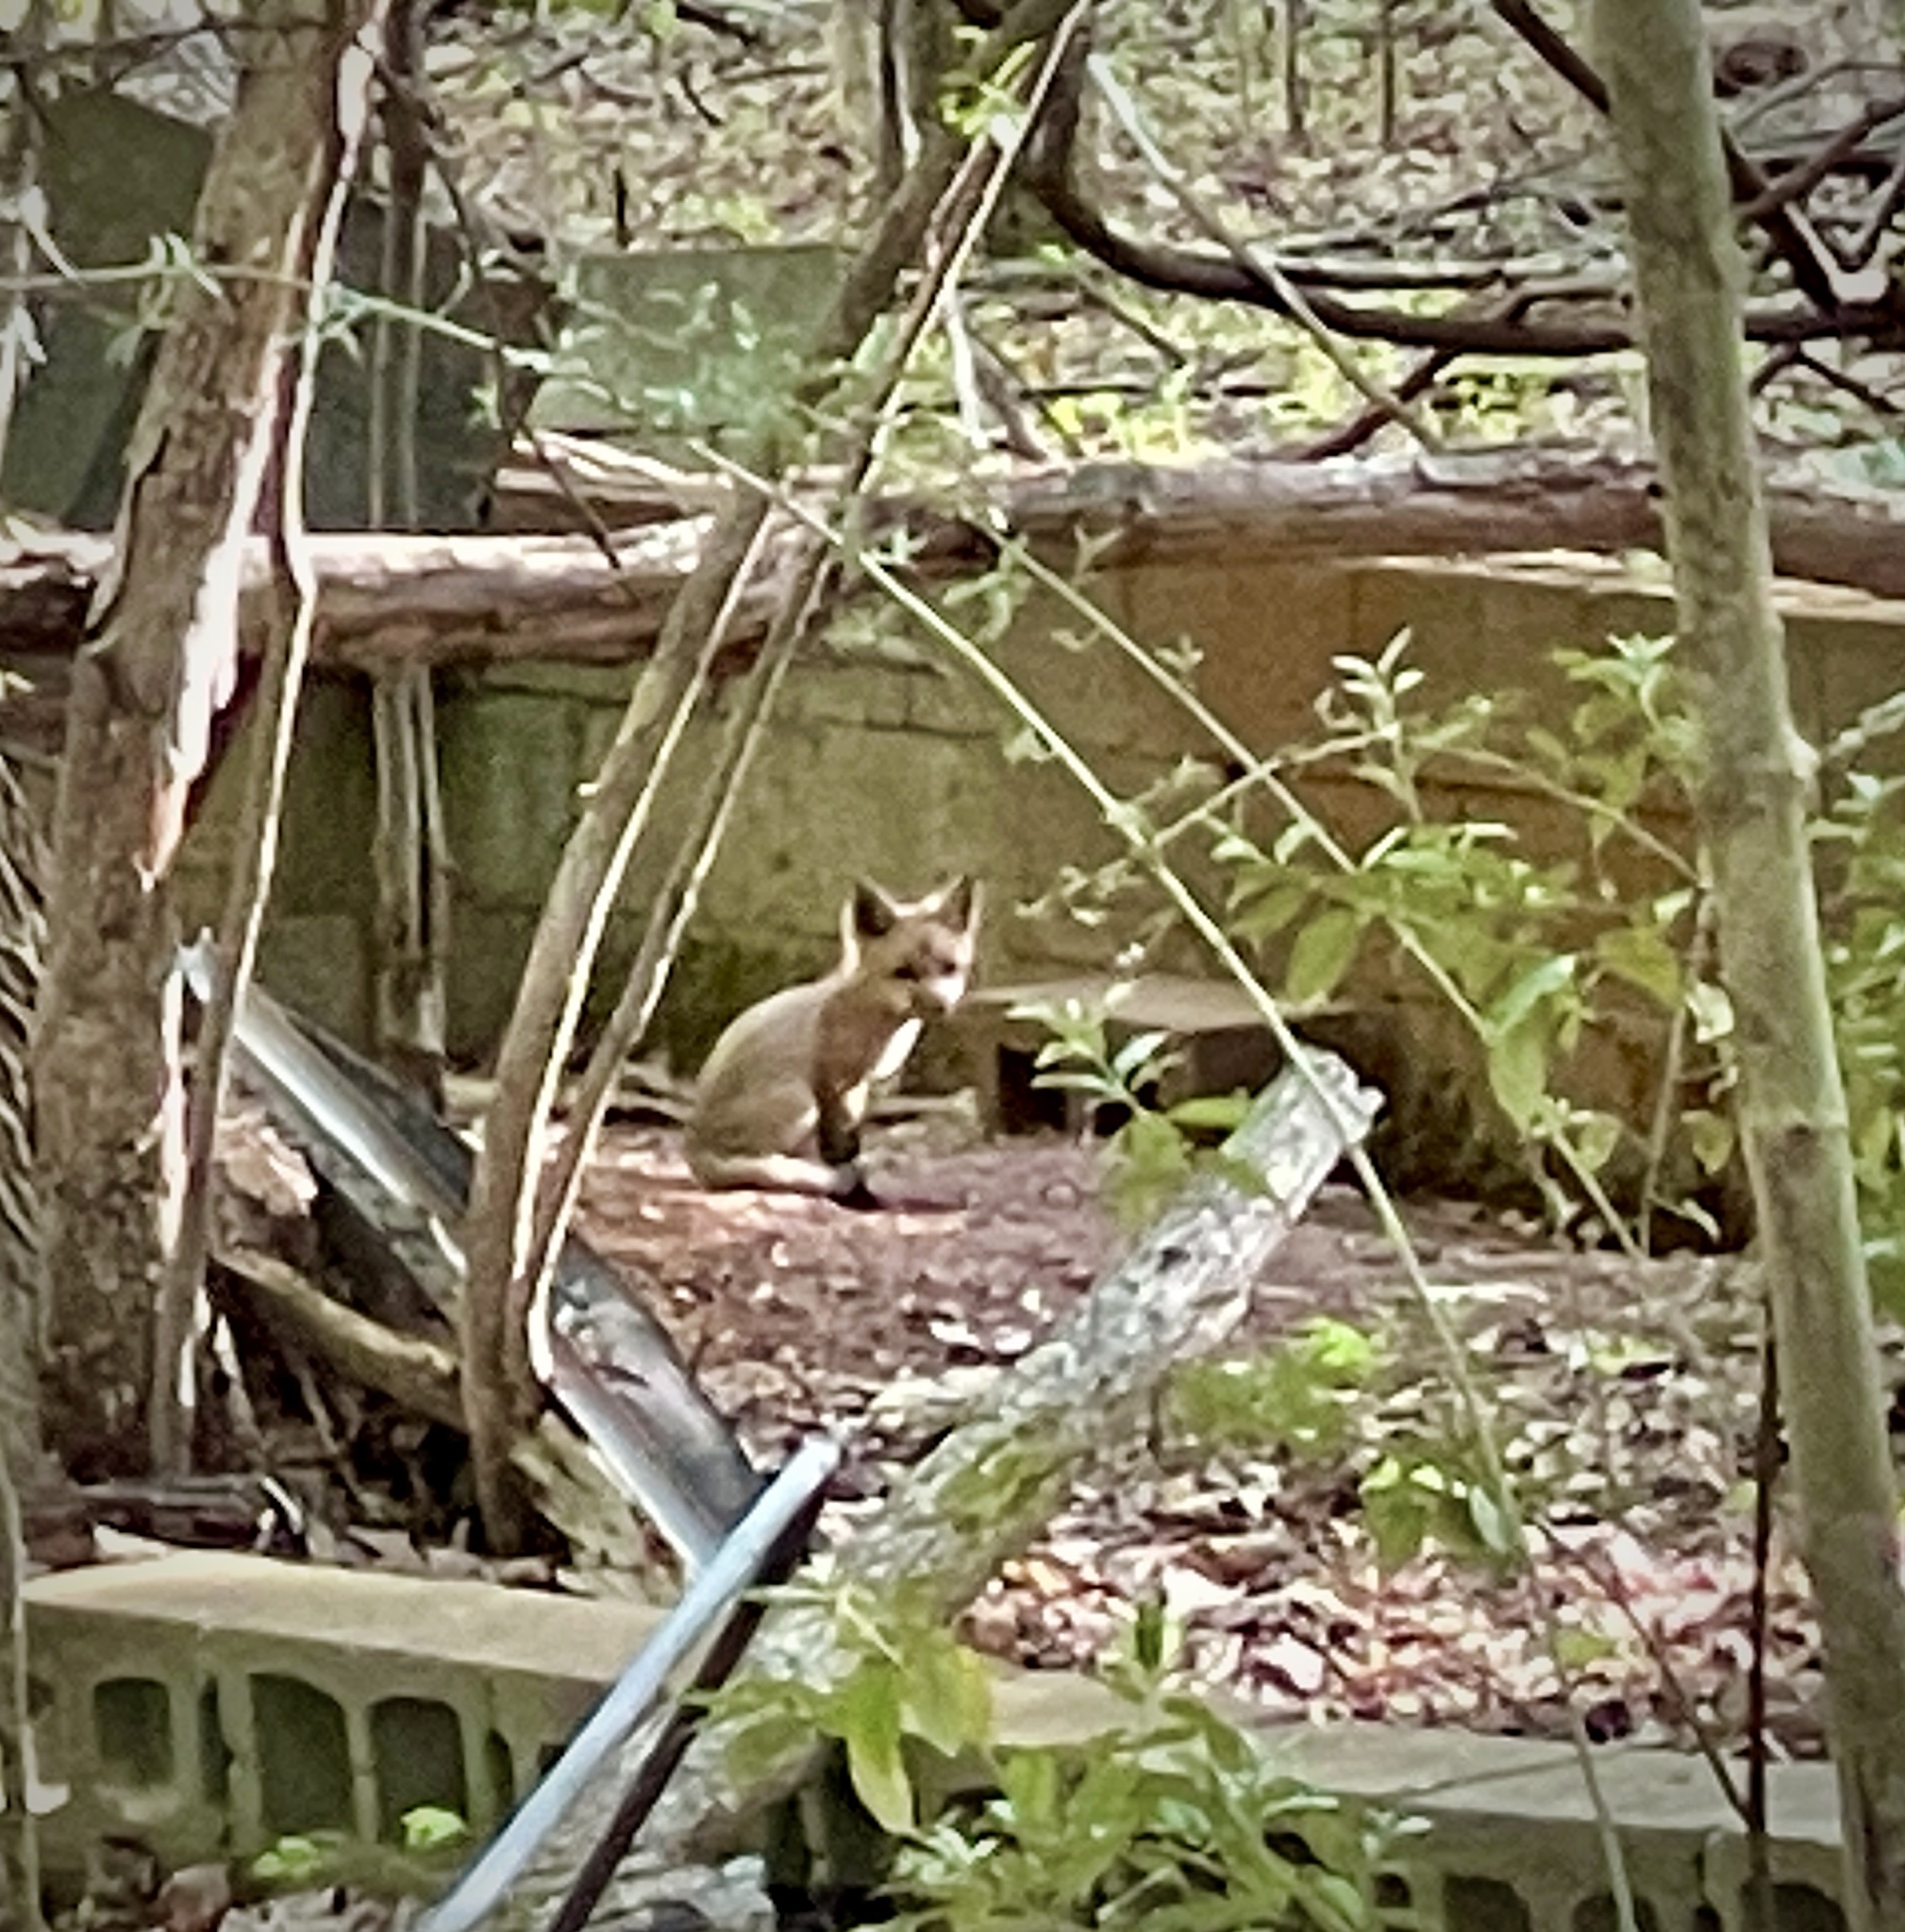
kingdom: Animalia
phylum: Chordata
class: Mammalia
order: Carnivora
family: Canidae
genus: Vulpes
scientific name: Vulpes vulpes
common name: Red fox
